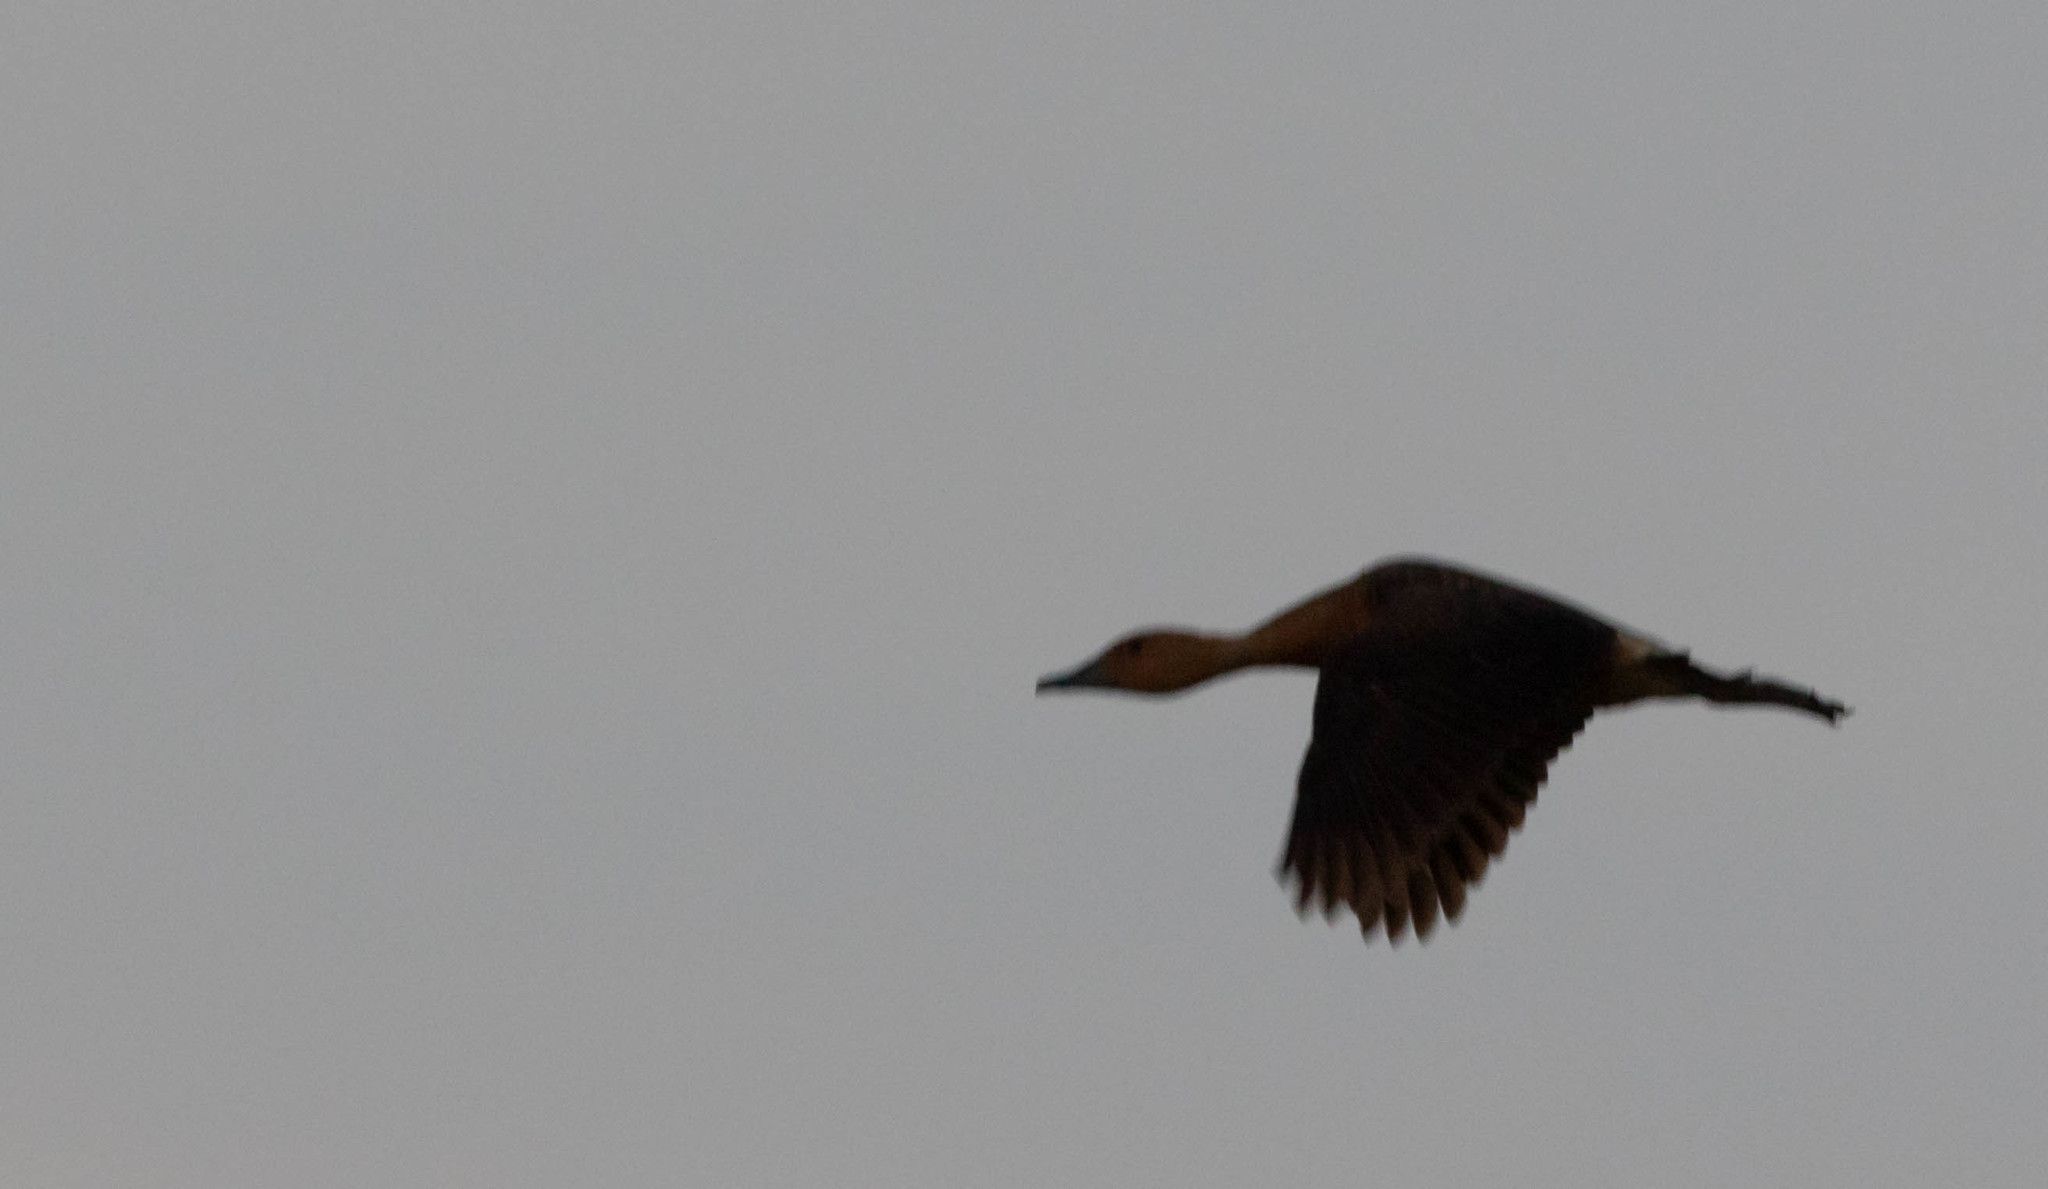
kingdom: Animalia
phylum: Chordata
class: Aves
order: Anseriformes
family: Anatidae
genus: Dendrocygna
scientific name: Dendrocygna bicolor
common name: Fulvous whistling duck
